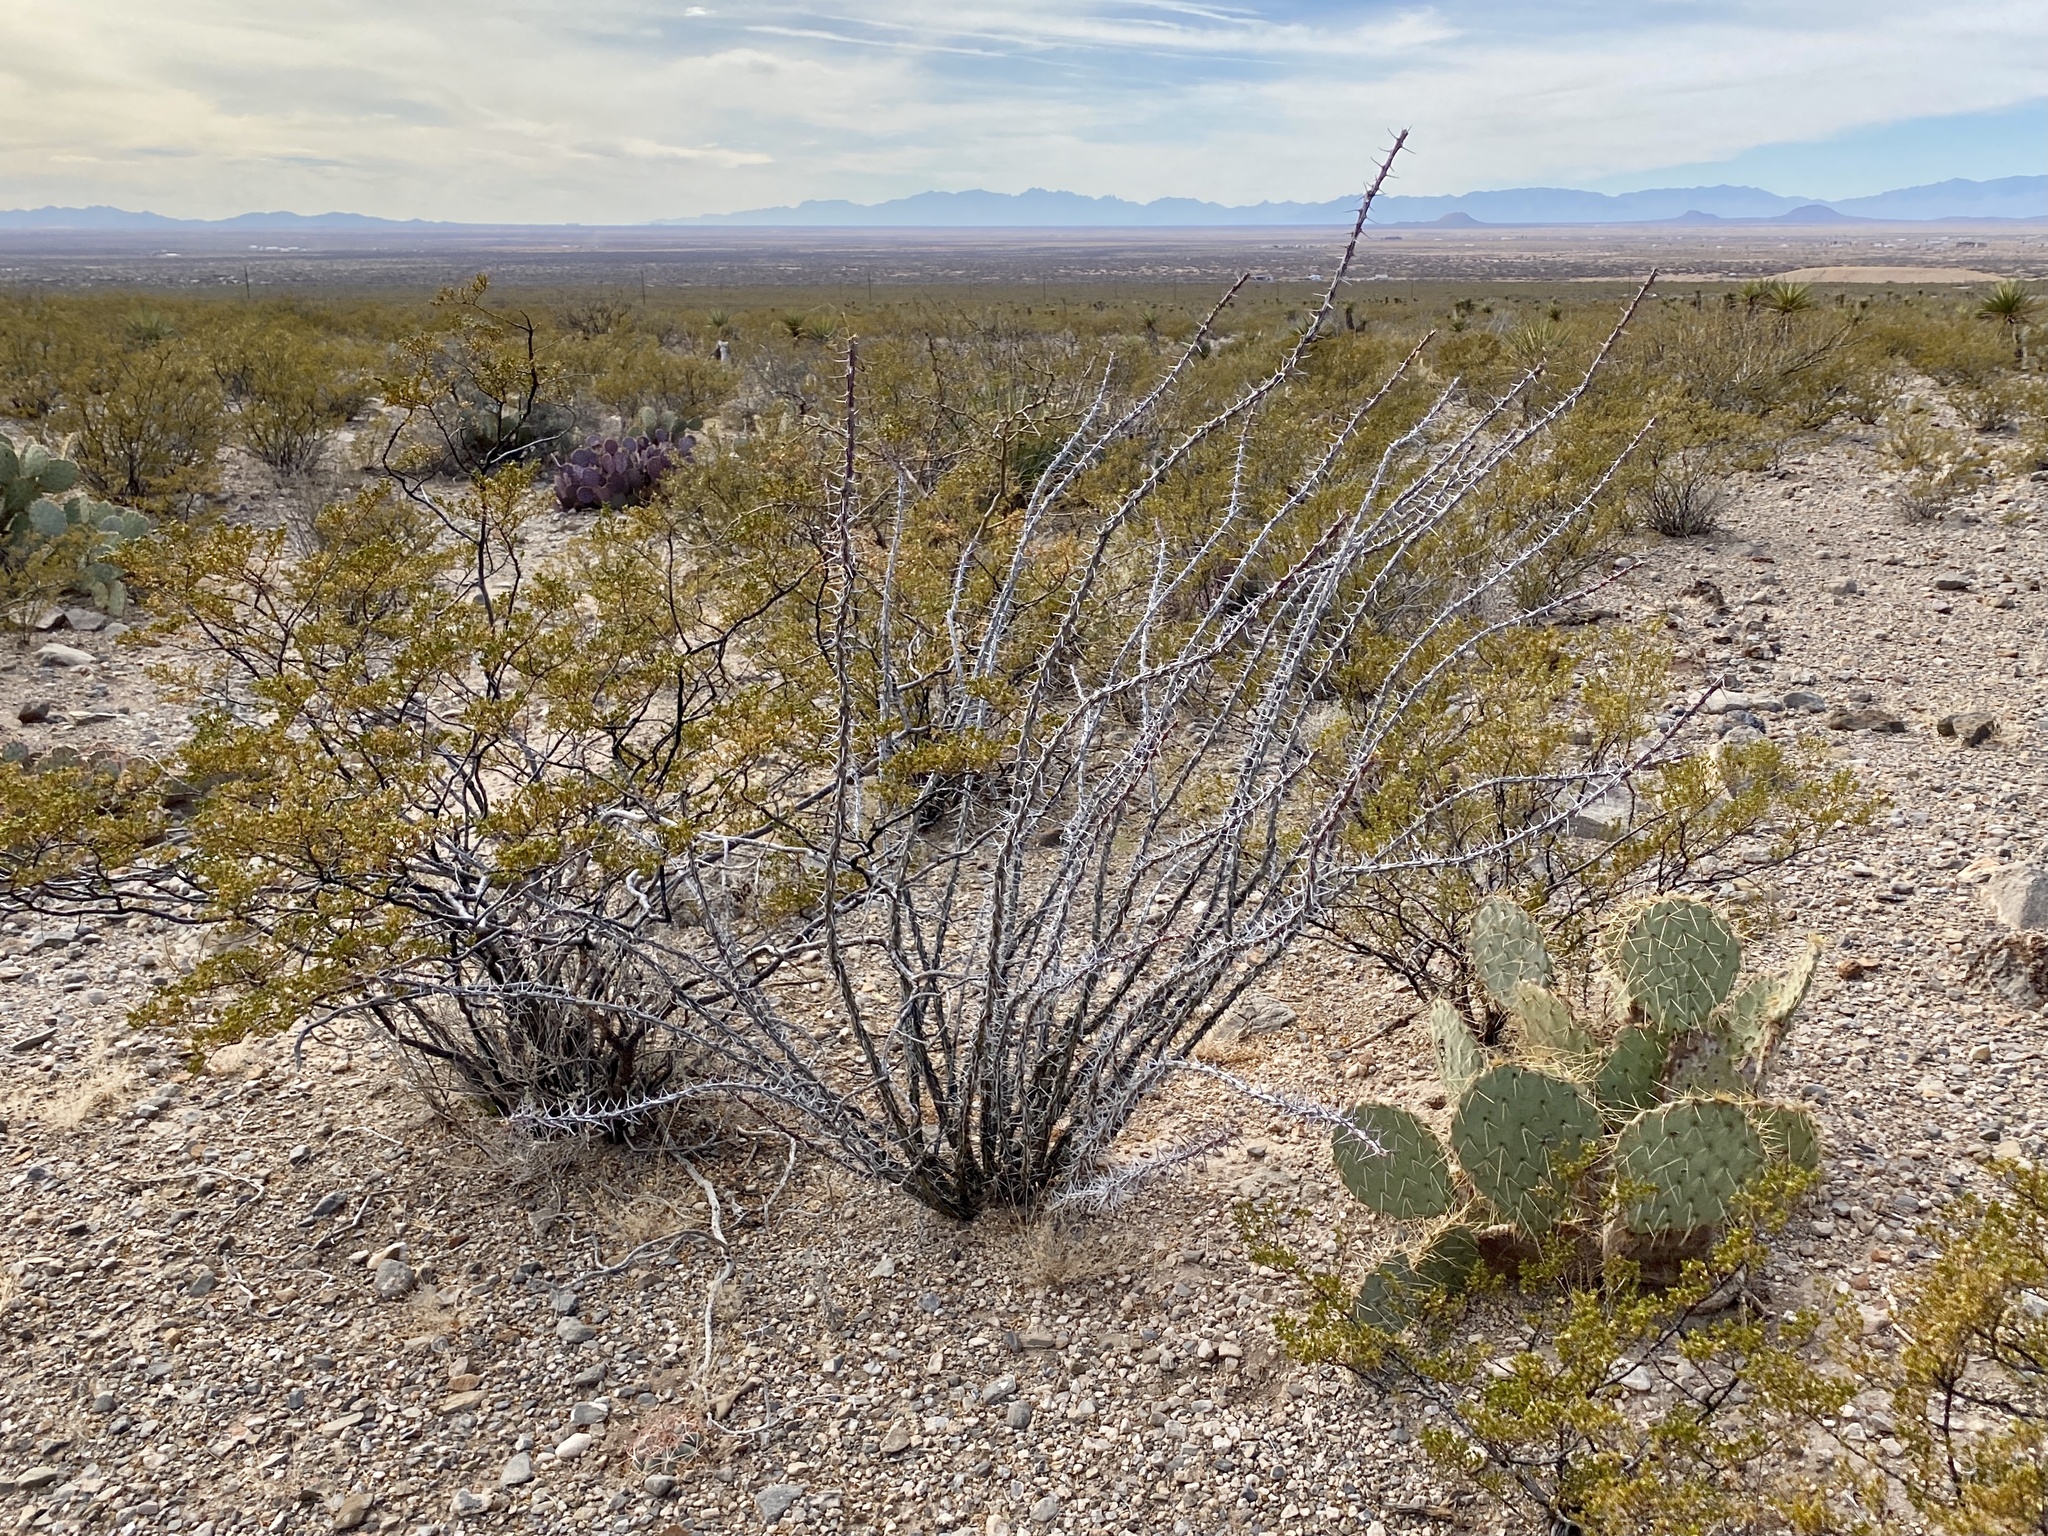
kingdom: Plantae
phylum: Tracheophyta
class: Magnoliopsida
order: Ericales
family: Fouquieriaceae
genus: Fouquieria
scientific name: Fouquieria splendens
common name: Vine-cactus
